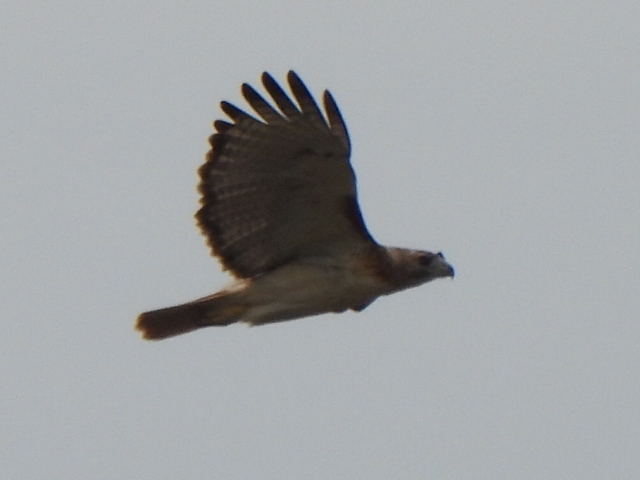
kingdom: Animalia
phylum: Chordata
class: Aves
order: Accipitriformes
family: Accipitridae
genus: Buteo
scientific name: Buteo jamaicensis
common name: Red-tailed hawk
